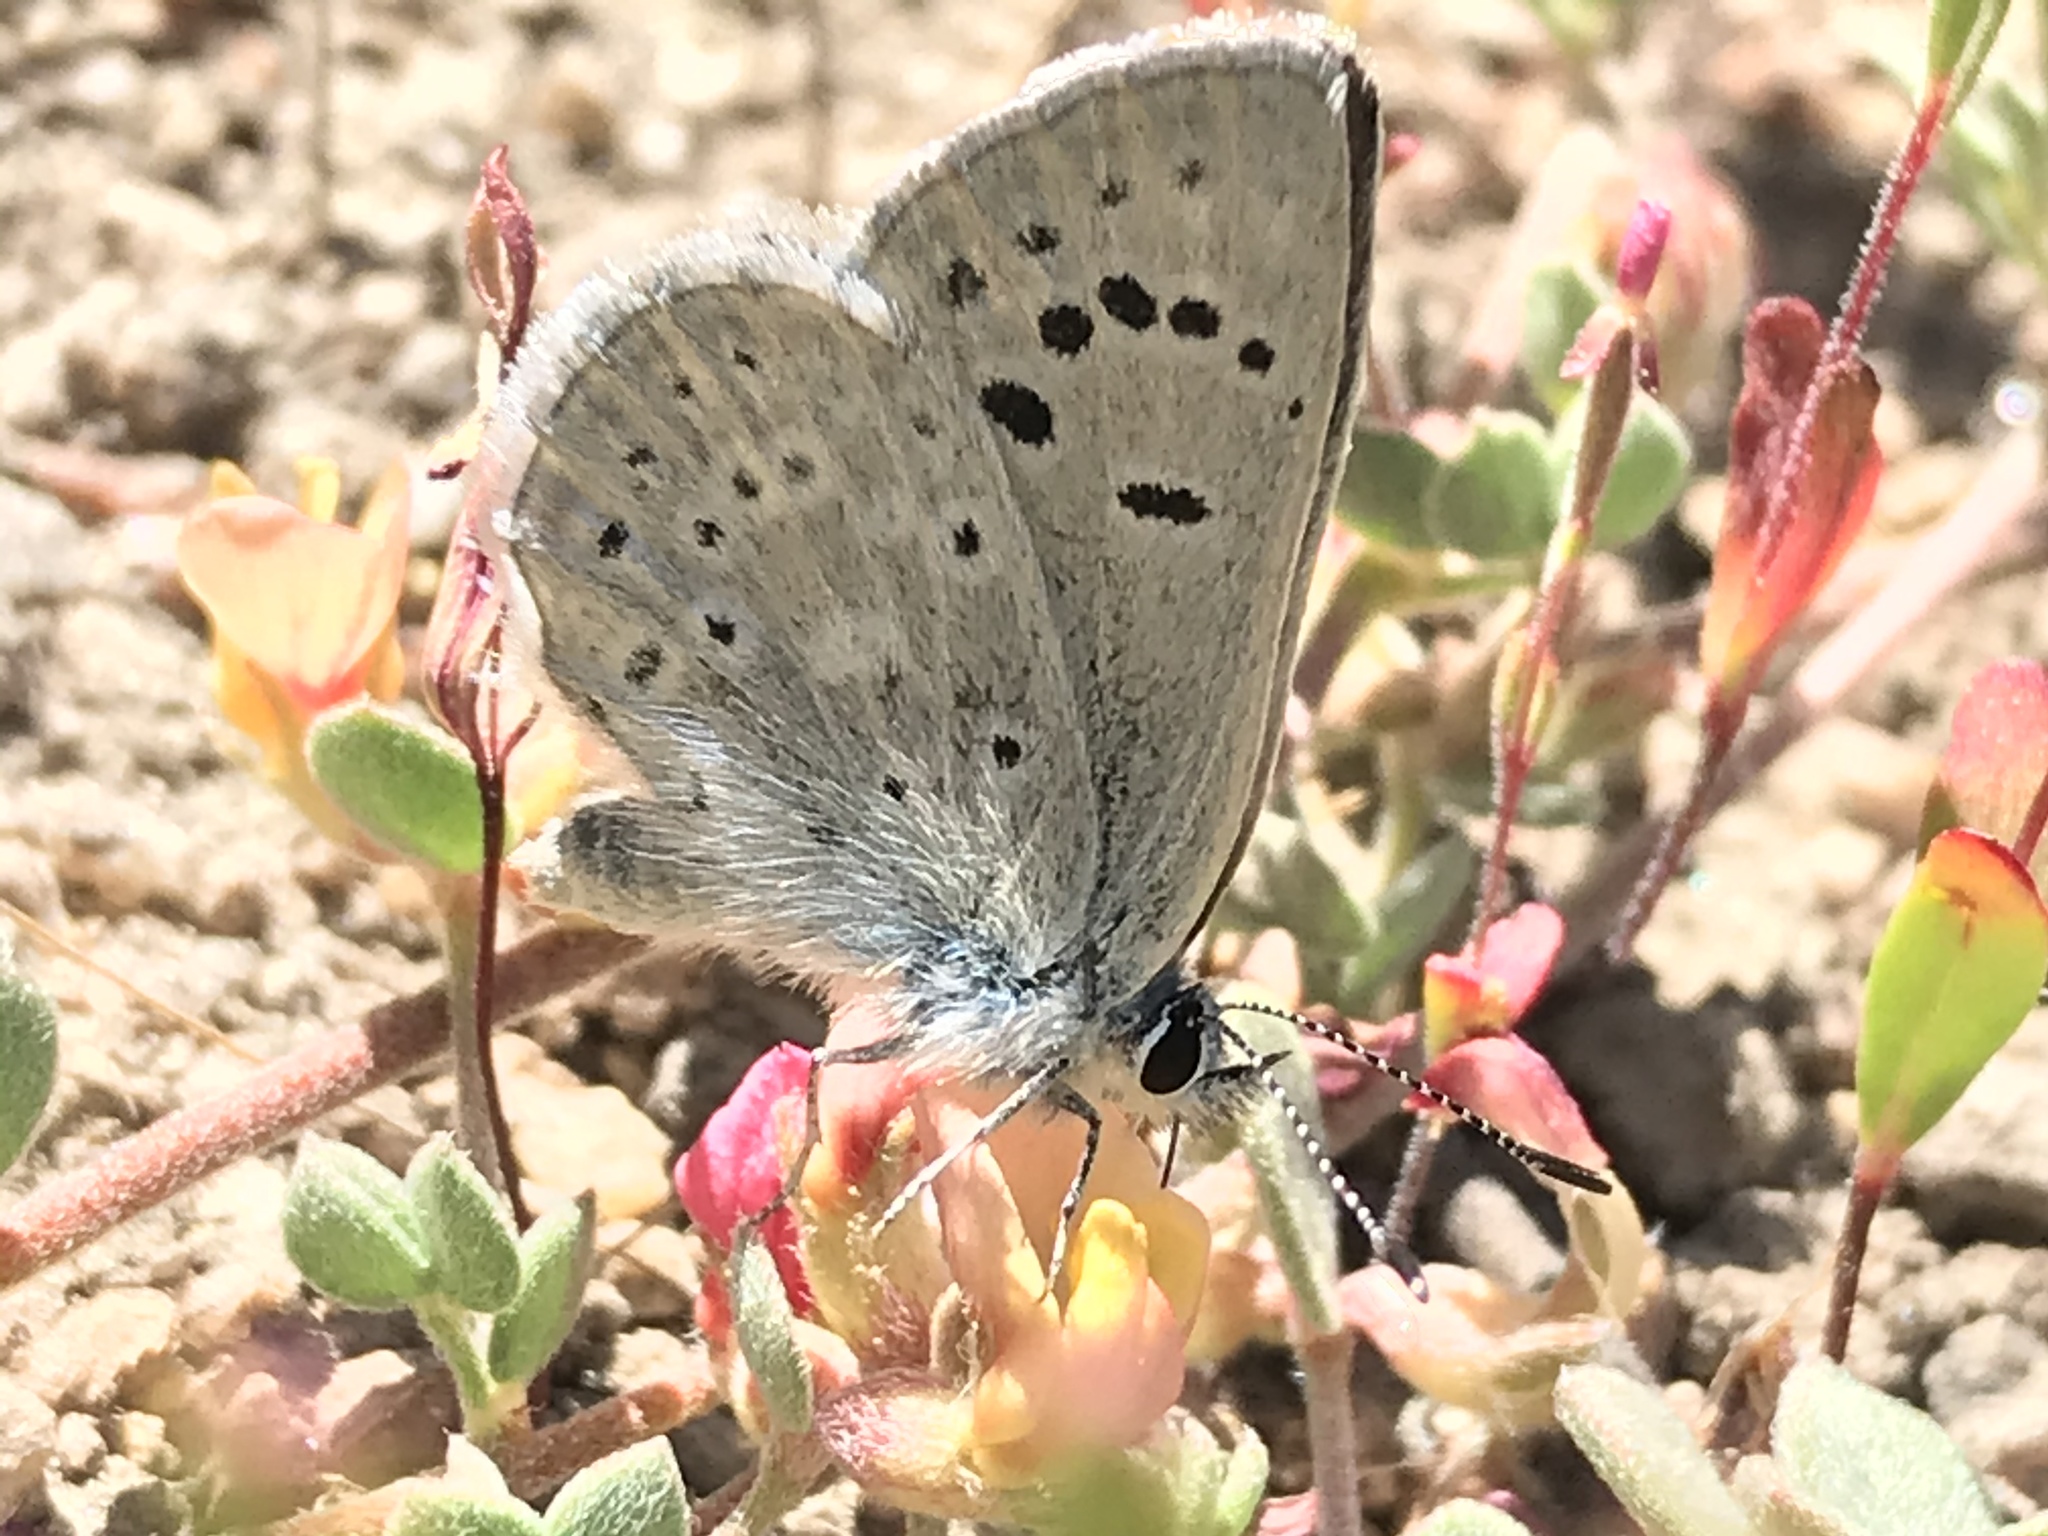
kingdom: Animalia
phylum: Arthropoda
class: Insecta
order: Lepidoptera
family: Lycaenidae
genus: Icaricia
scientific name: Icaricia icarioides
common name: Boisduval's blue
